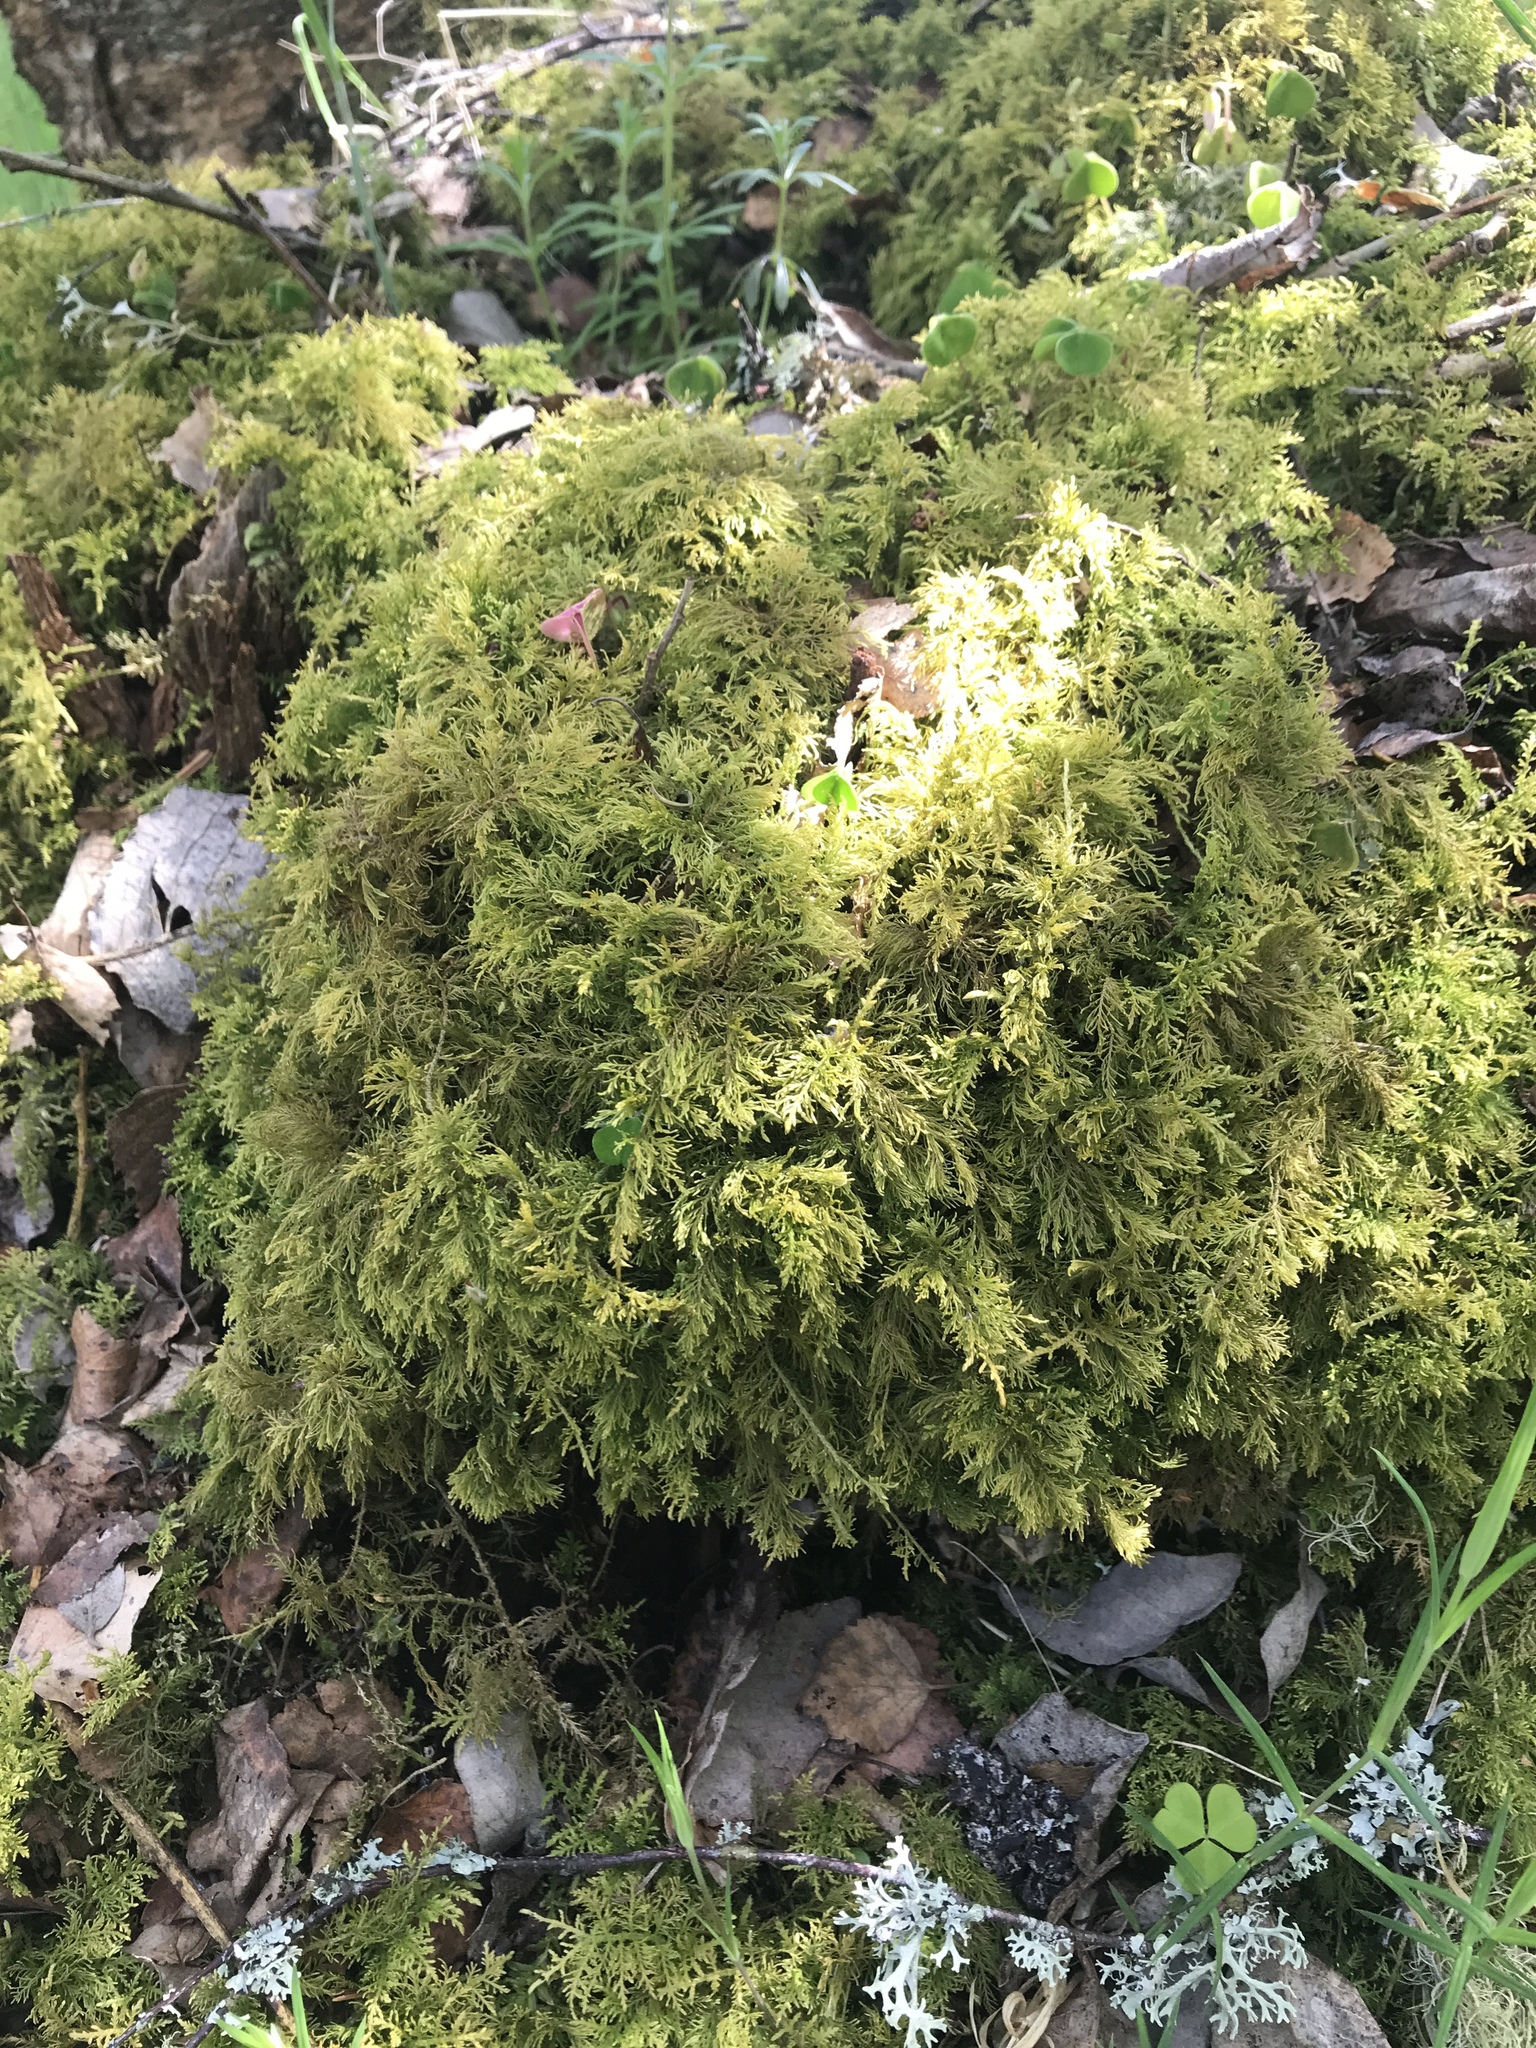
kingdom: Plantae
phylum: Bryophyta
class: Bryopsida
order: Hypnales
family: Thuidiaceae
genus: Thuidium
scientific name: Thuidium tamariscinum
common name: Common tamarisk-moss
